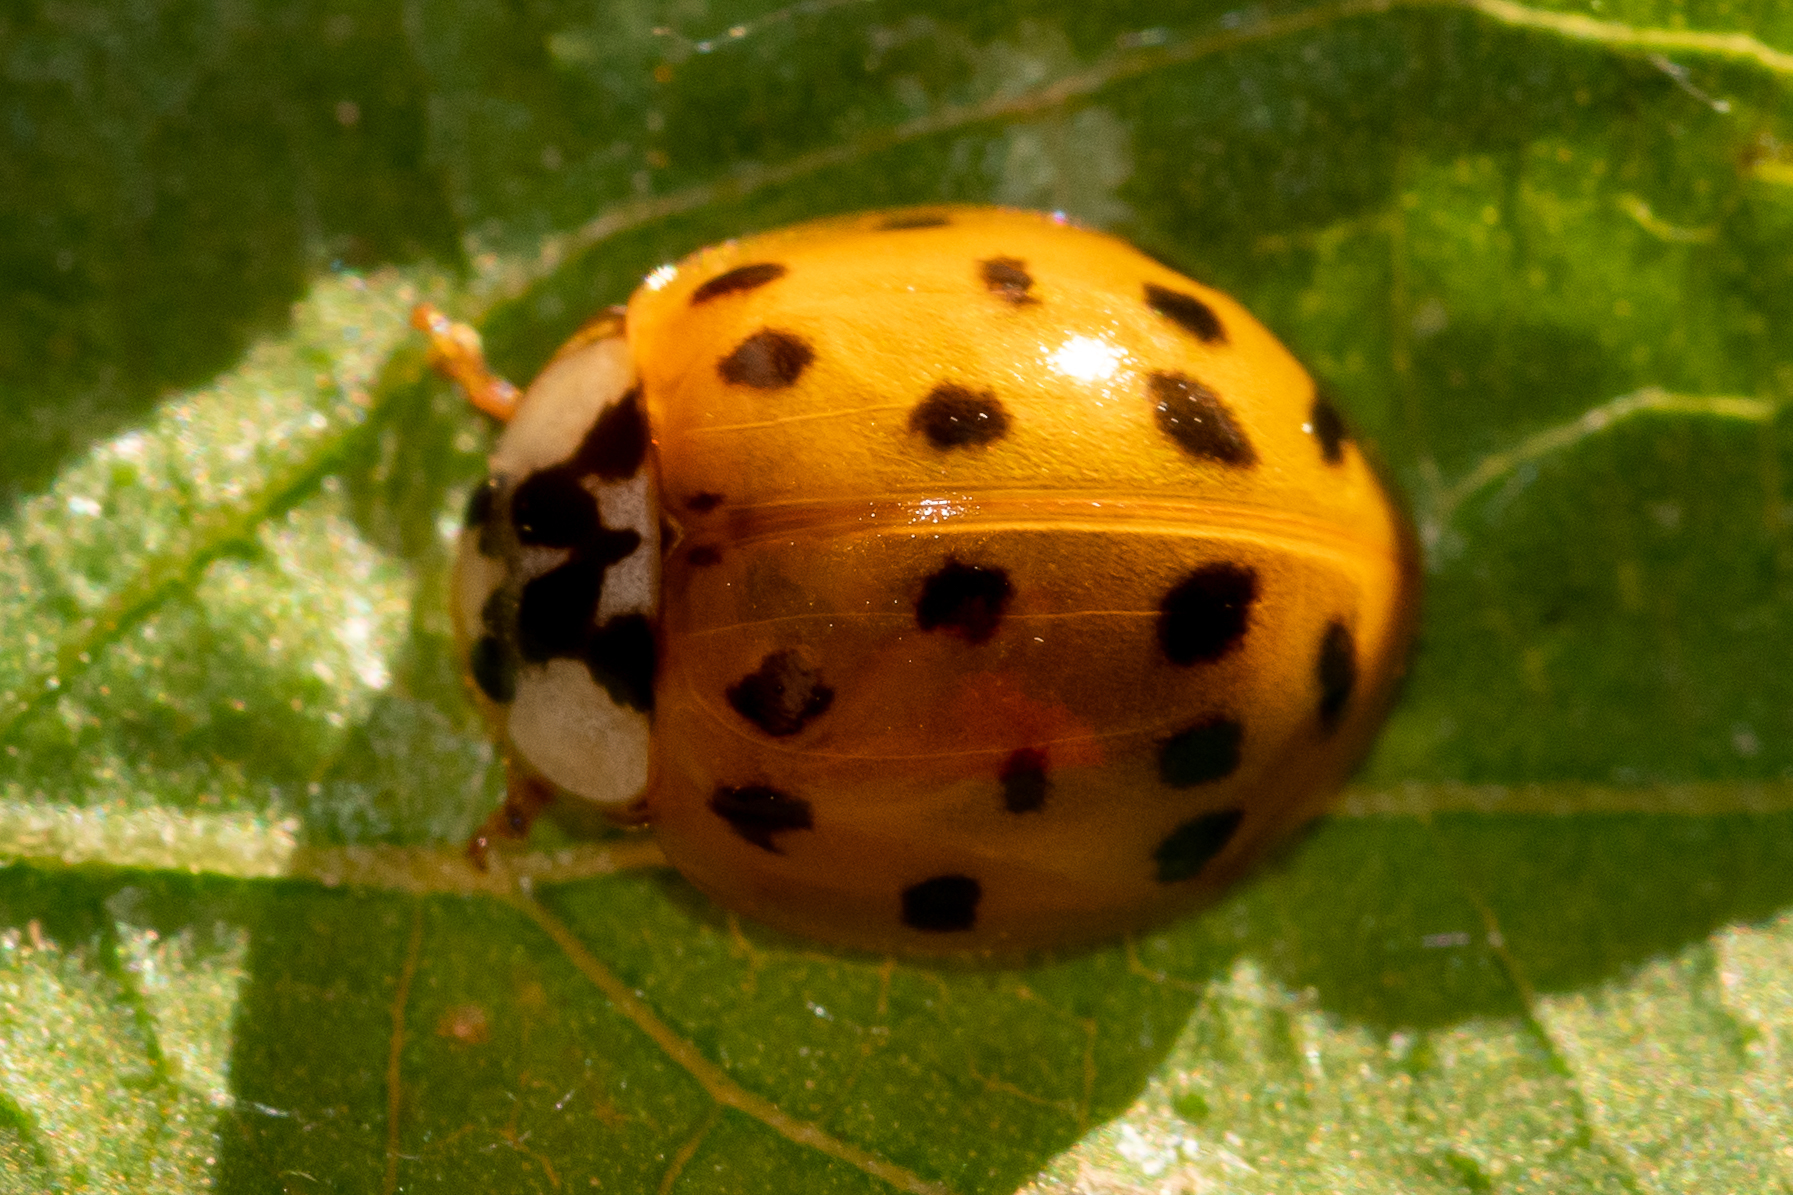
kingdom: Animalia
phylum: Arthropoda
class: Insecta
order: Coleoptera
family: Coccinellidae
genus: Harmonia
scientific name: Harmonia axyridis
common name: Harlequin ladybird
